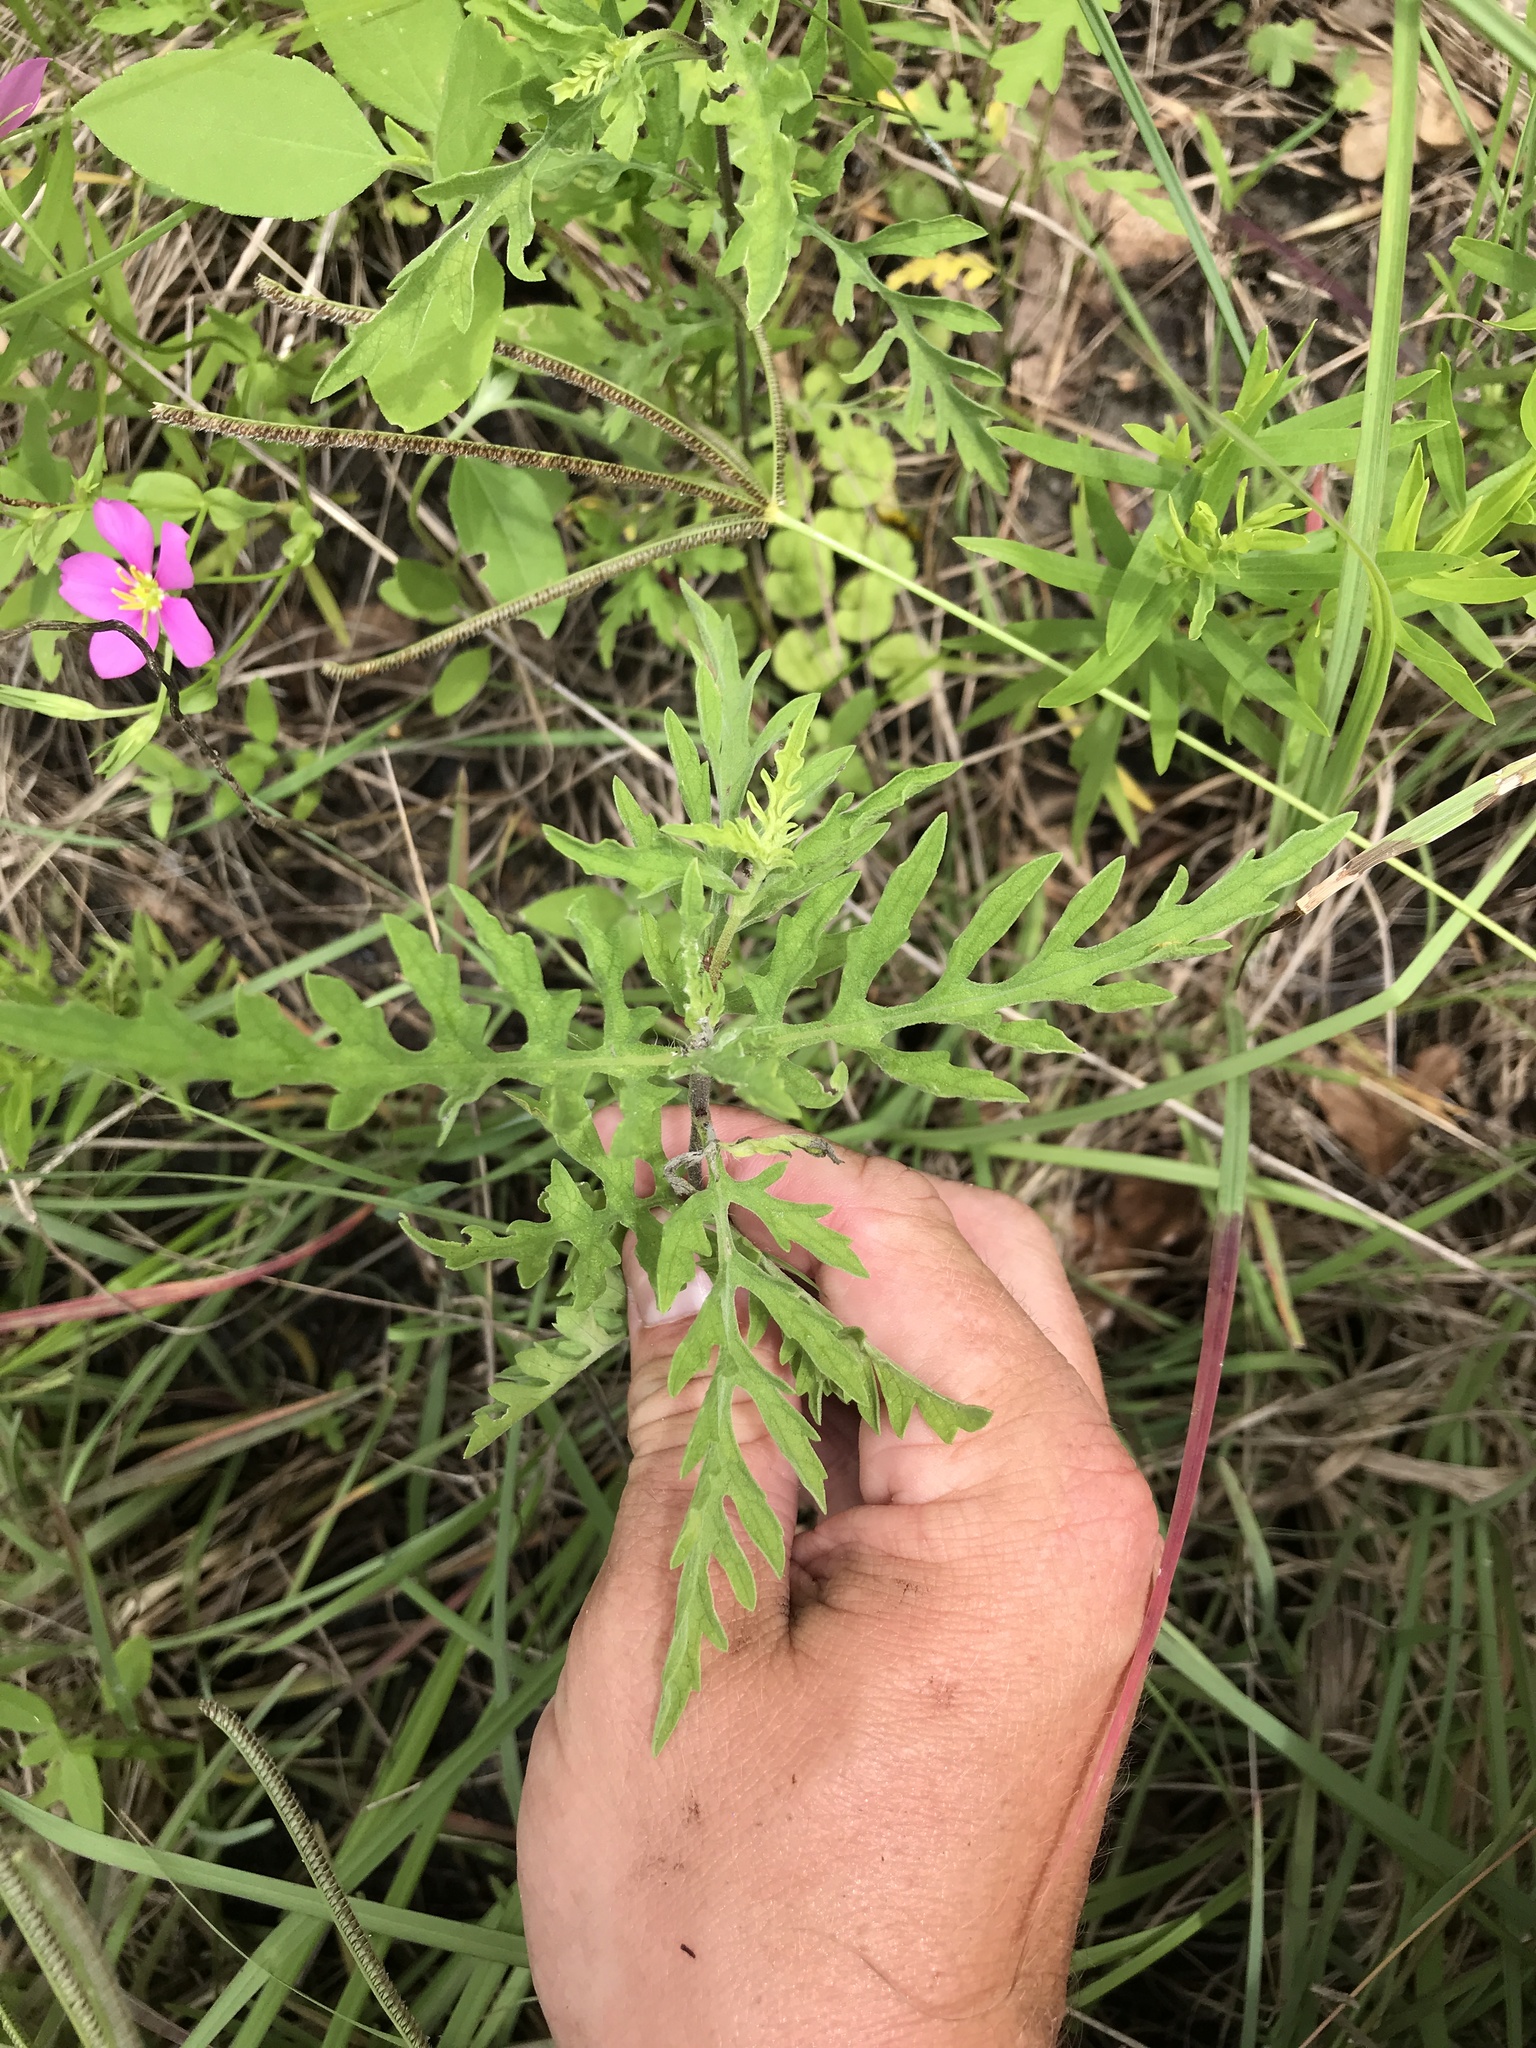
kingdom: Plantae
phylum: Tracheophyta
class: Magnoliopsida
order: Asterales
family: Asteraceae
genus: Ambrosia
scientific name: Ambrosia psilostachya
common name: Perennial ragweed
